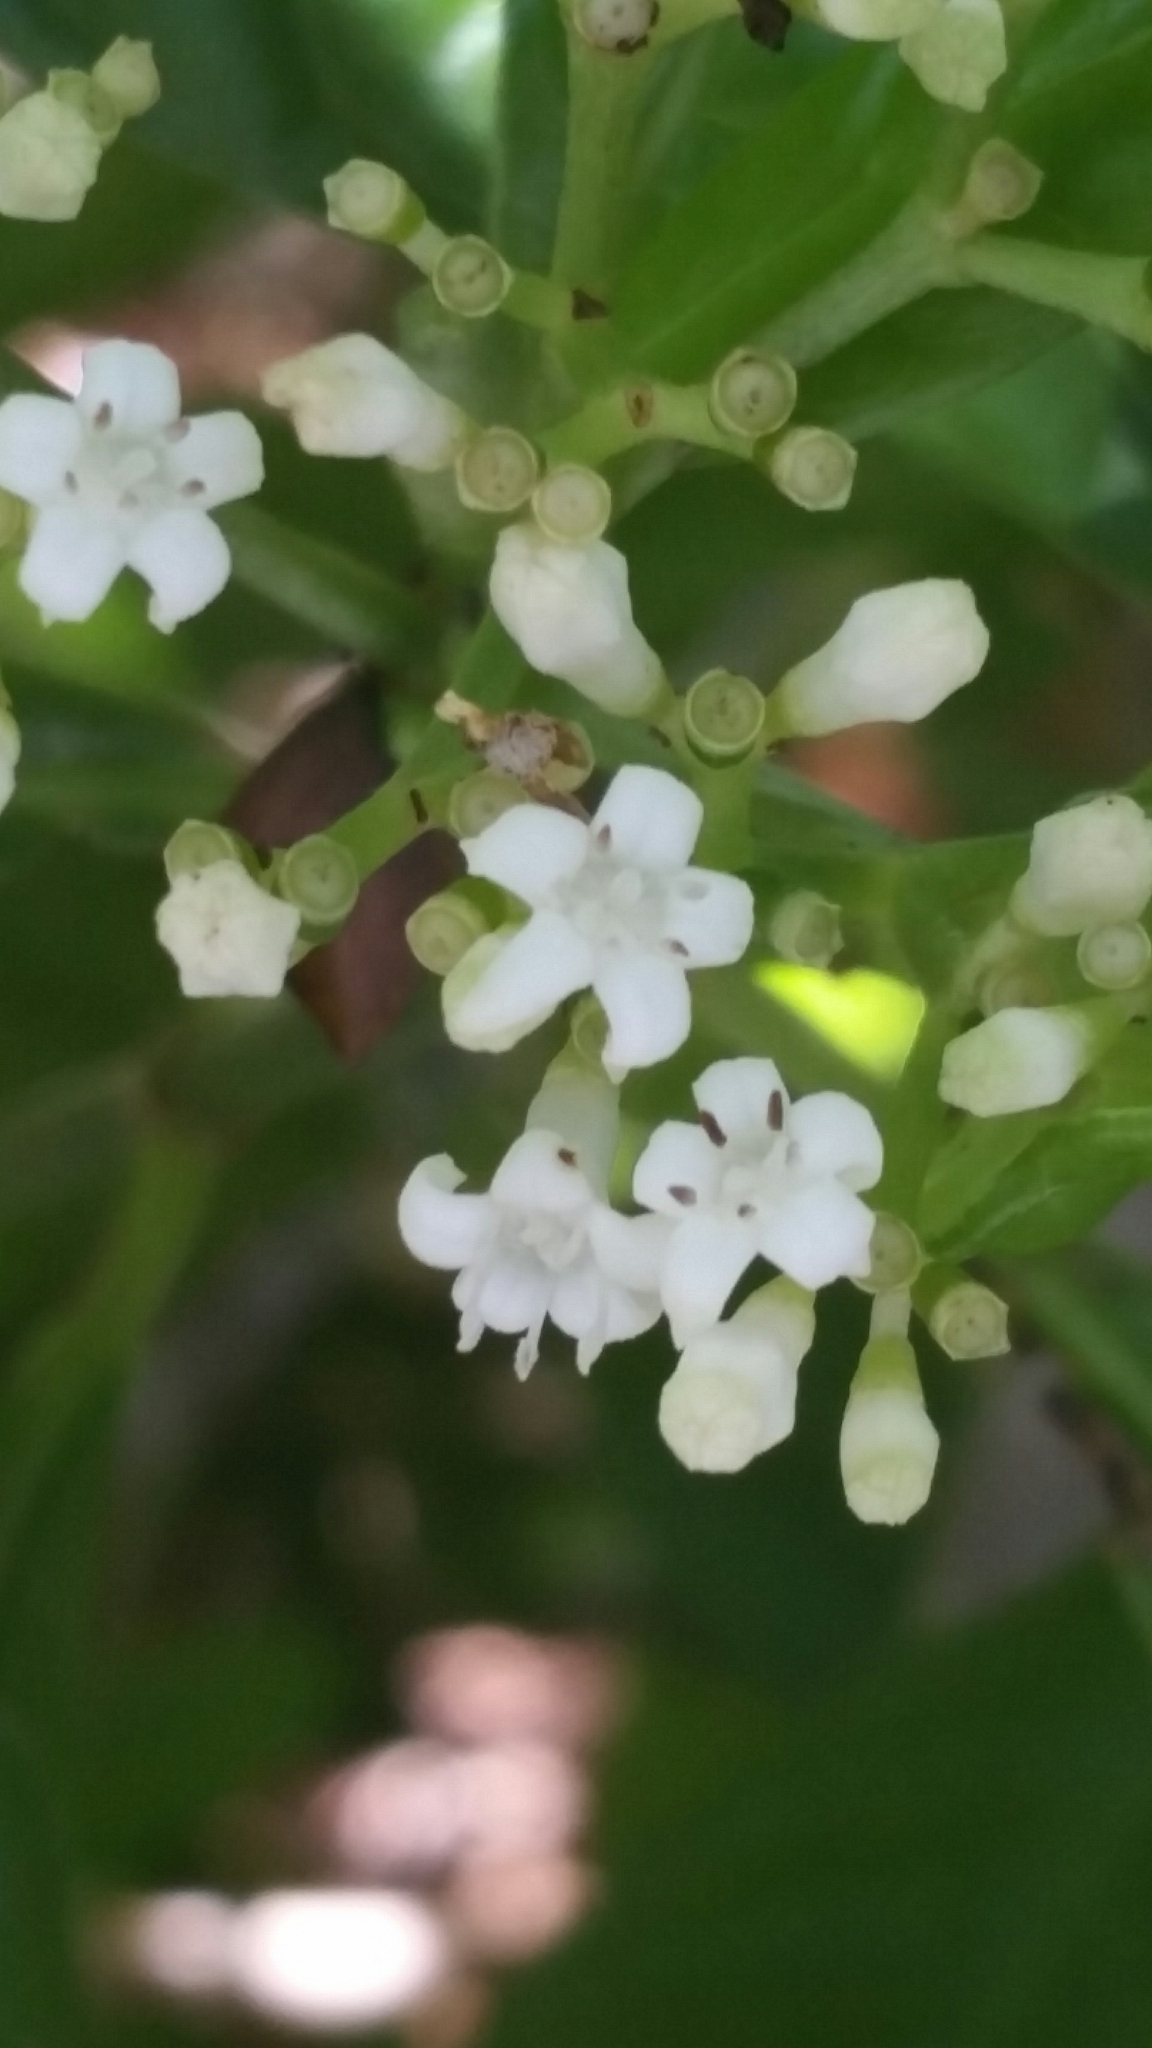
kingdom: Plantae
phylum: Tracheophyta
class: Magnoliopsida
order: Gentianales
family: Rubiaceae
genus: Psychotria
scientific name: Psychotria nervosa
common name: Bastard cankerberry
